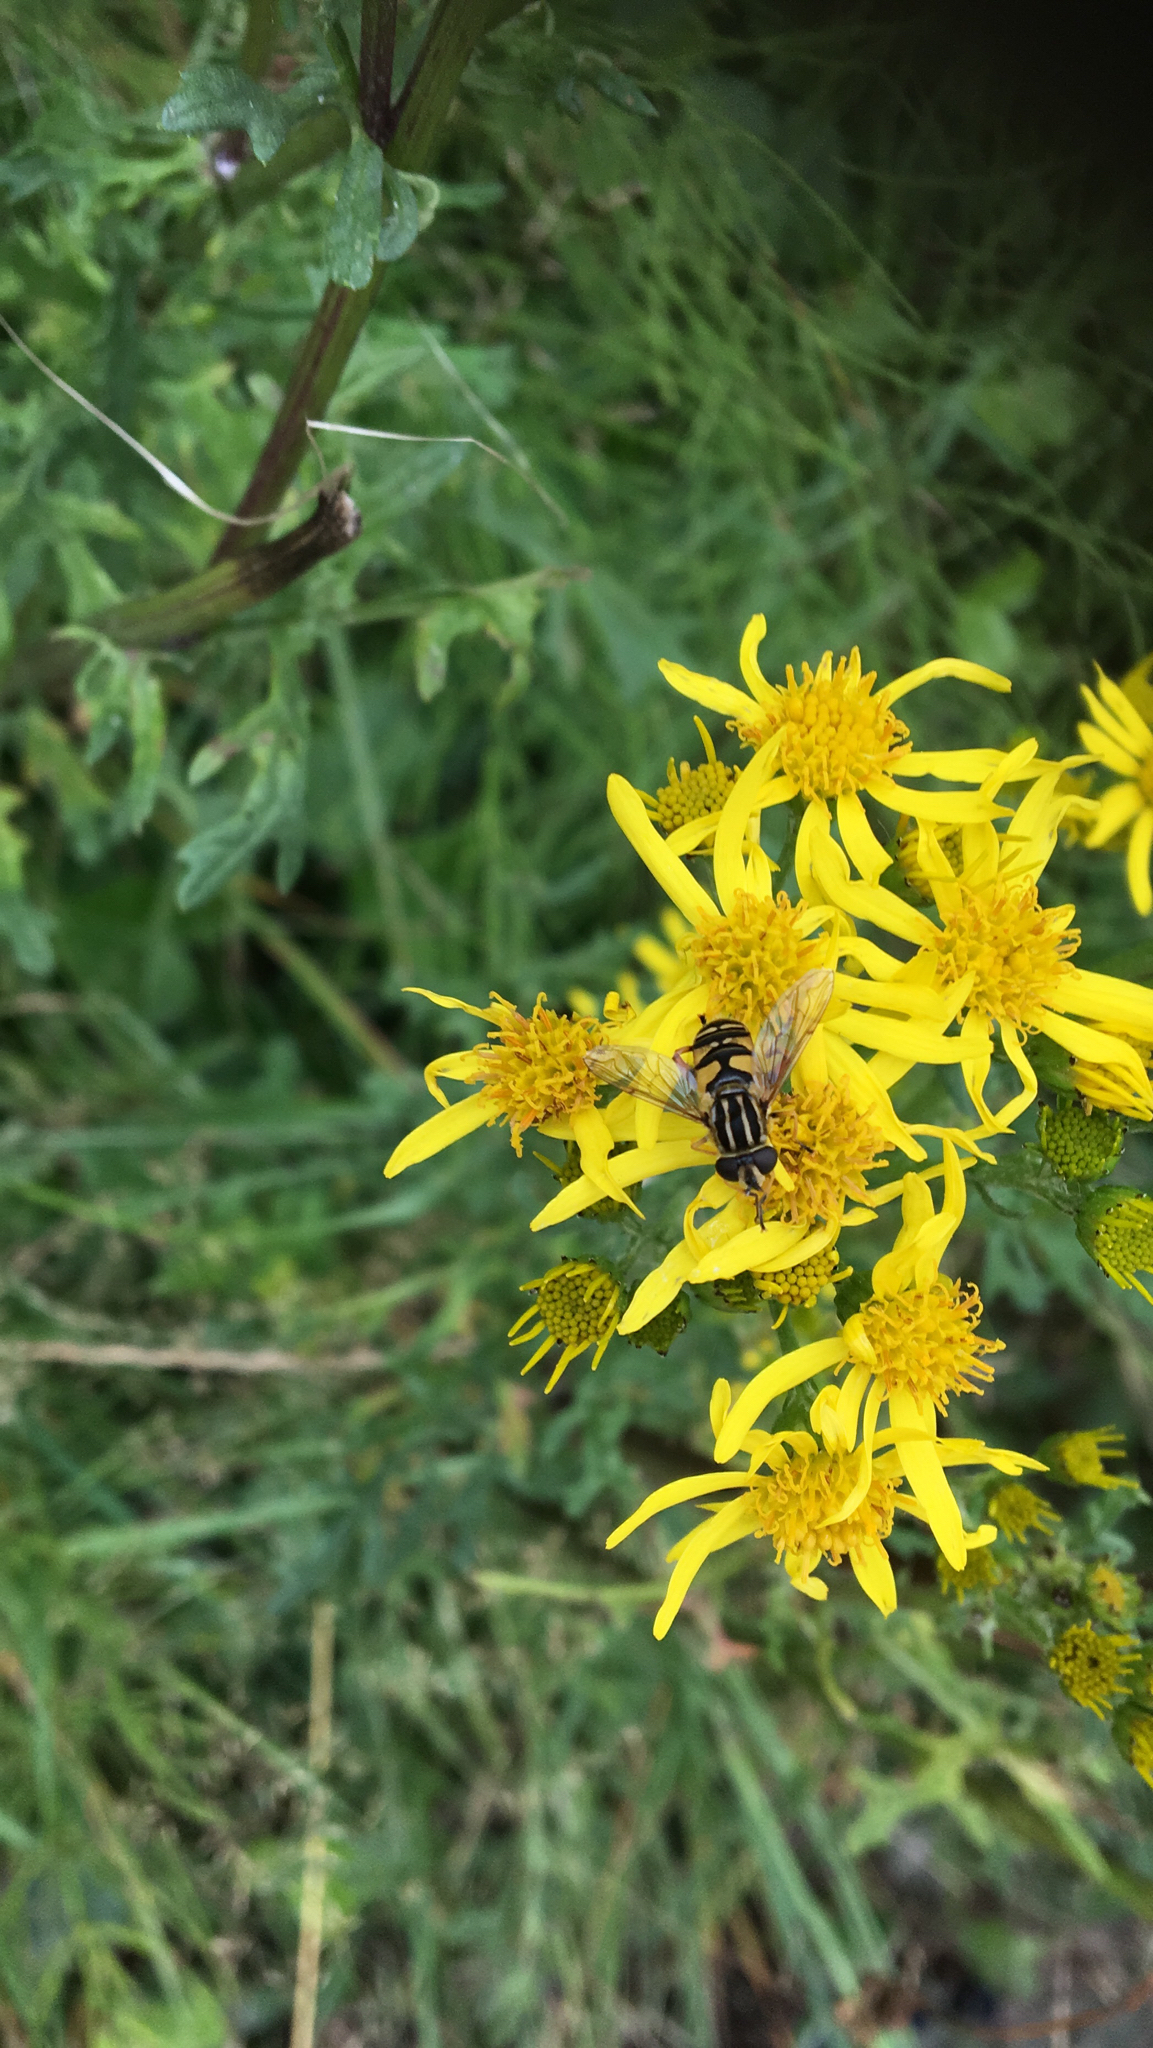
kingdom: Animalia
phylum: Arthropoda
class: Insecta
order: Diptera
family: Syrphidae
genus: Helophilus
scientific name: Helophilus pendulus
